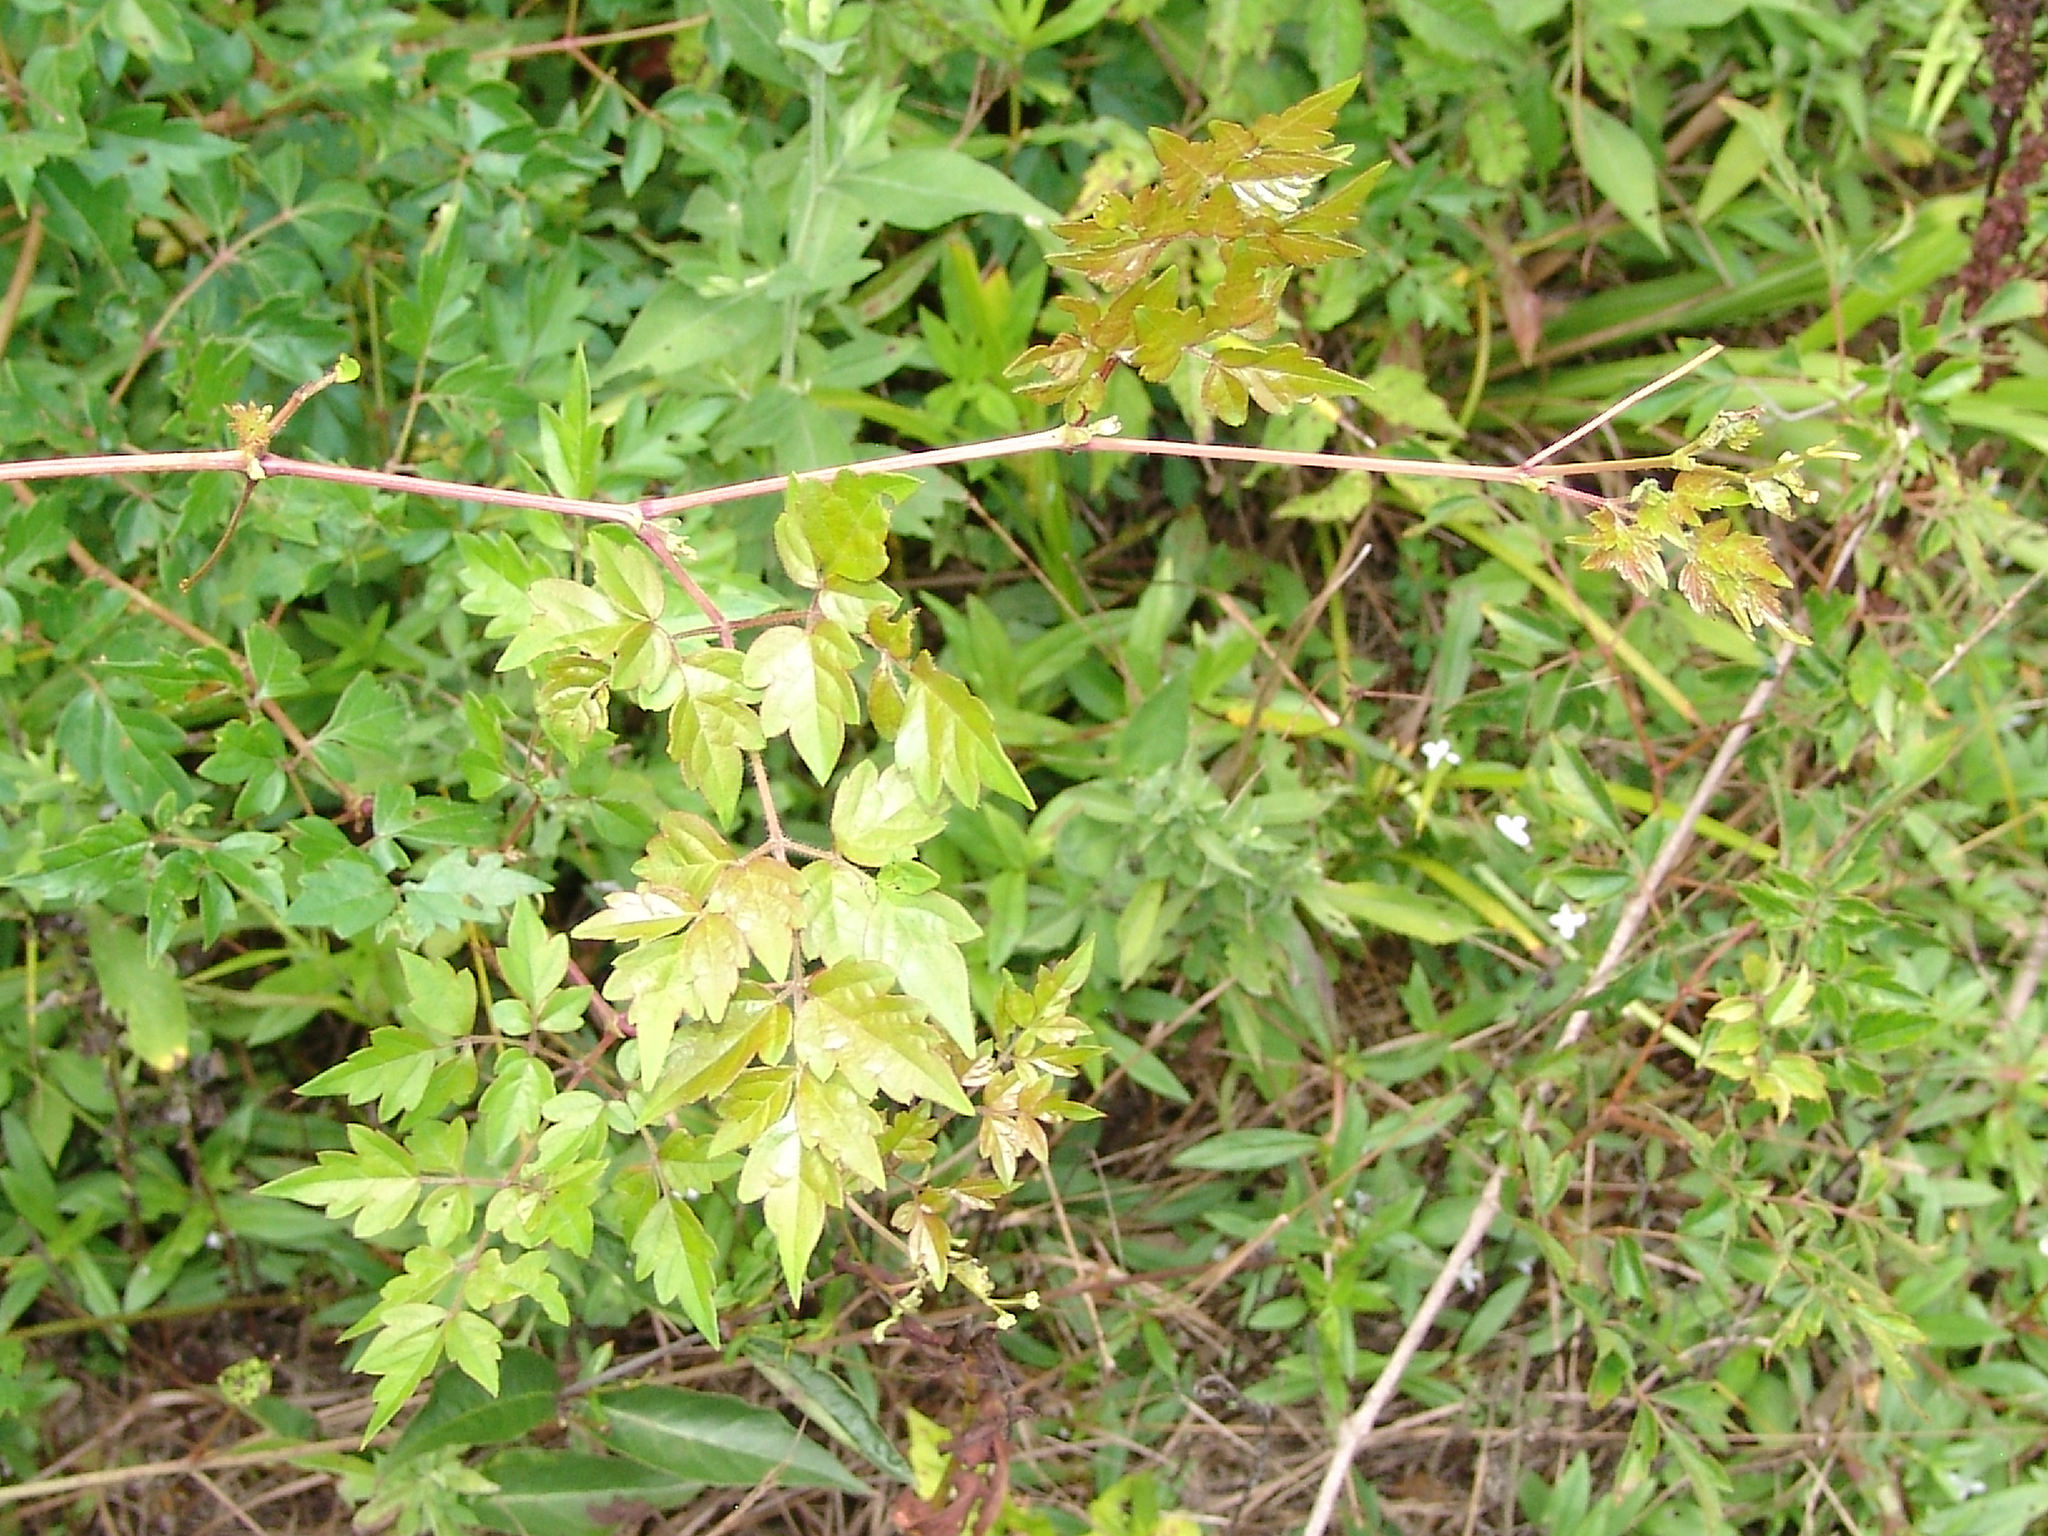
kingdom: Plantae
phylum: Tracheophyta
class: Magnoliopsida
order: Vitales
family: Vitaceae
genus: Nekemias
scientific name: Nekemias arborea
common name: Peppervine
